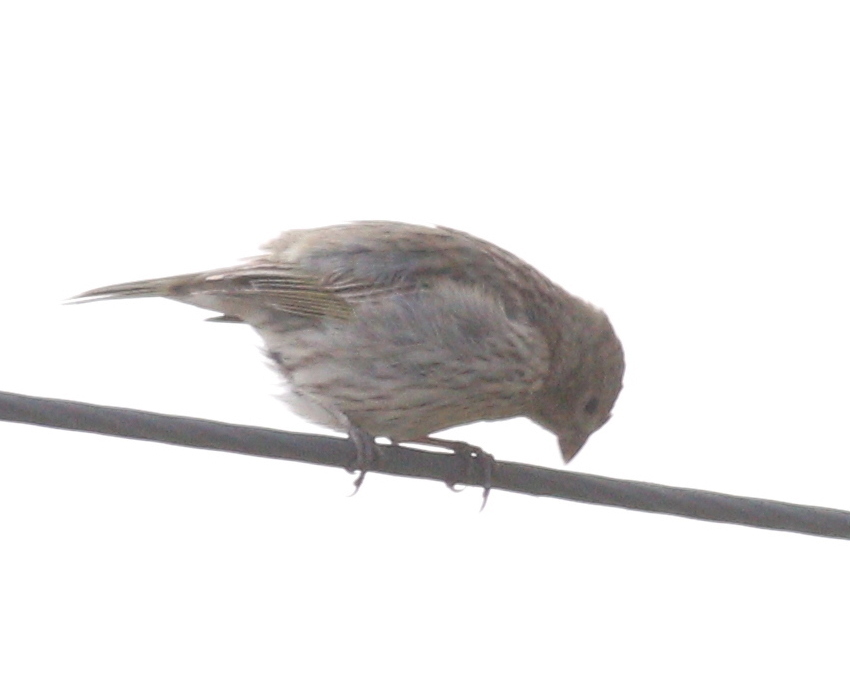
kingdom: Animalia
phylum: Chordata
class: Aves
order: Passeriformes
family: Thraupidae
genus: Sicalis
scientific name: Sicalis flaveola
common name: Saffron finch
